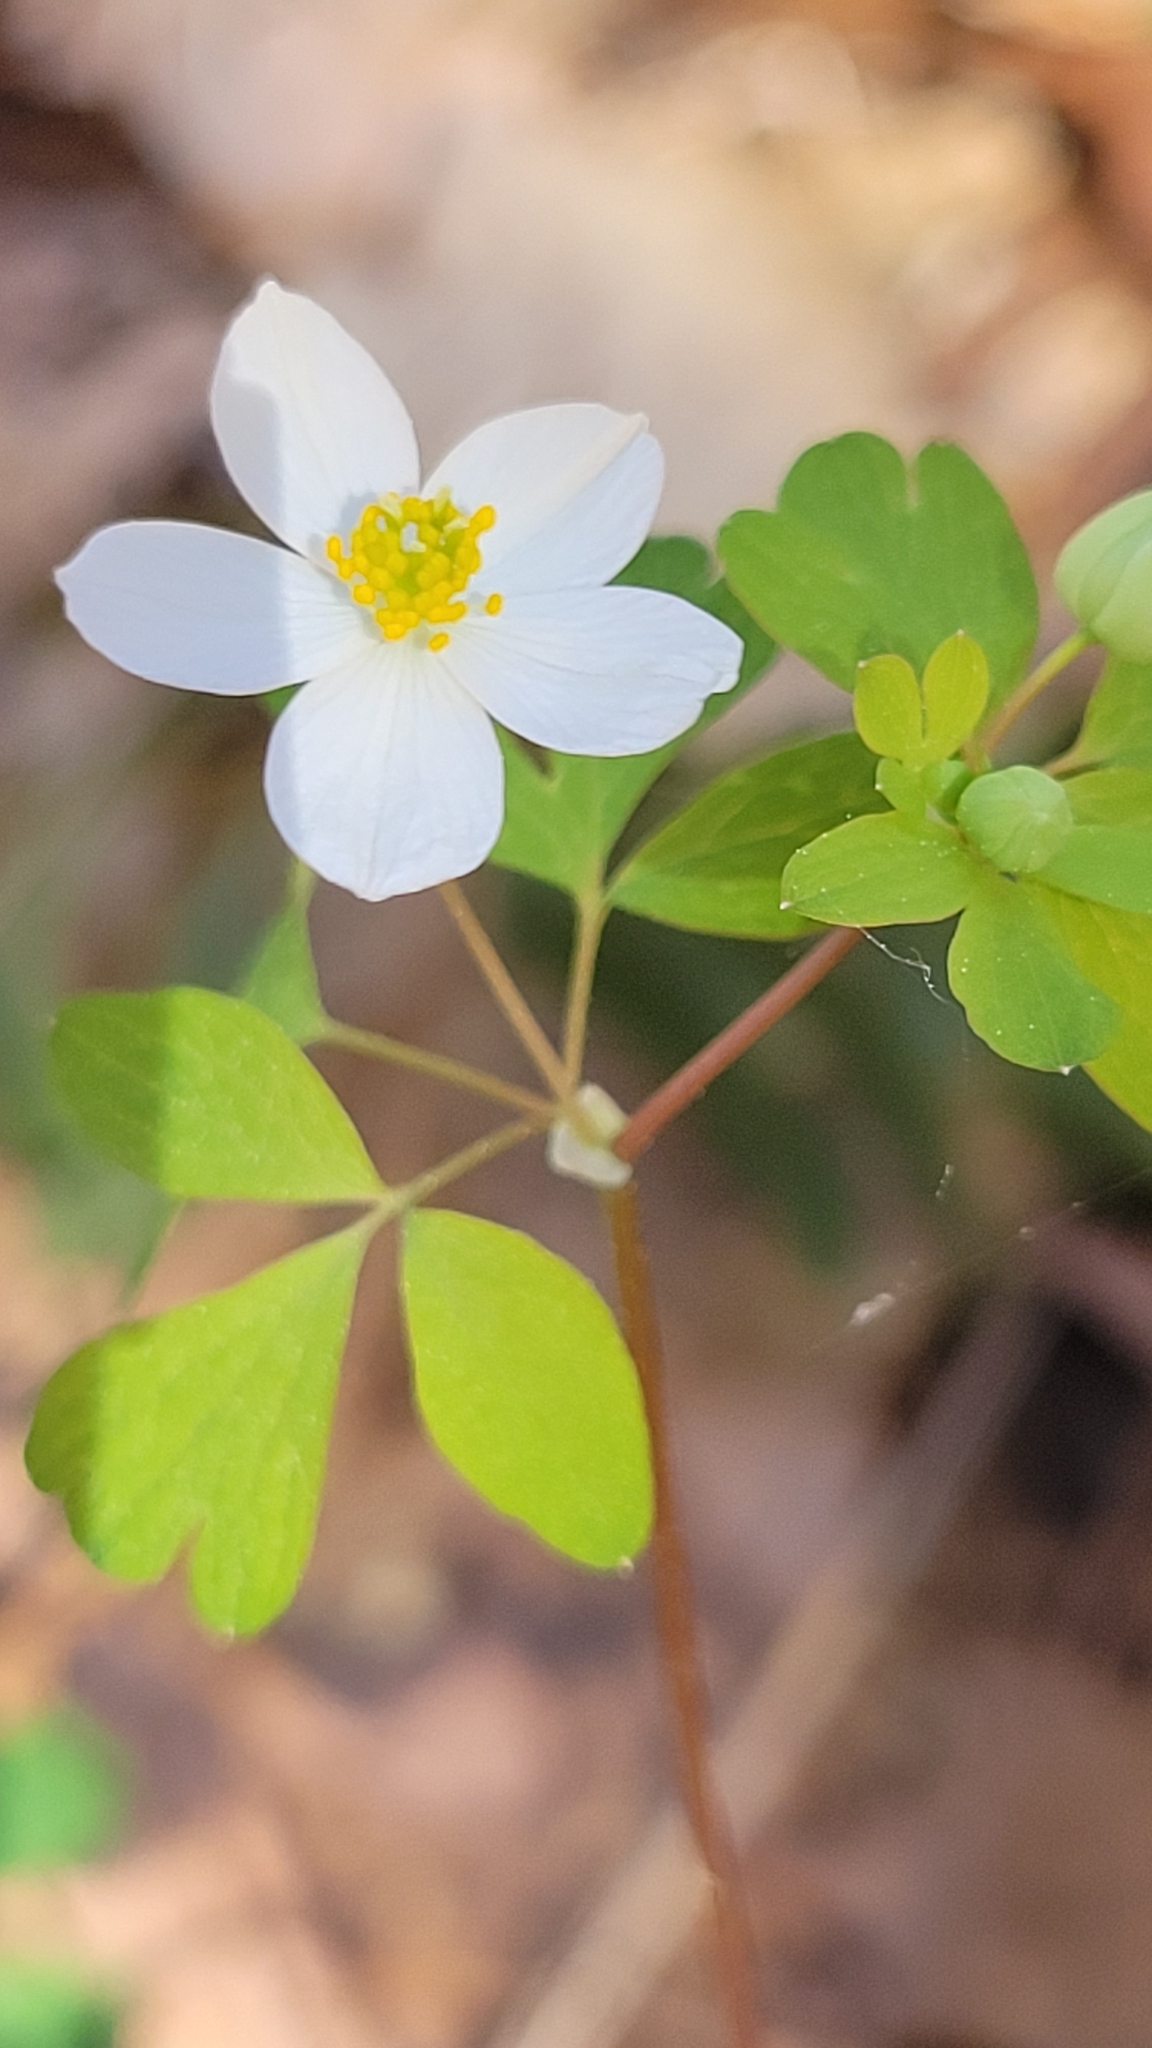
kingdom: Plantae
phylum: Tracheophyta
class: Magnoliopsida
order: Ranunculales
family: Ranunculaceae
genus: Enemion
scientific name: Enemion biternatum
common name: Eastern false rue-anemone
